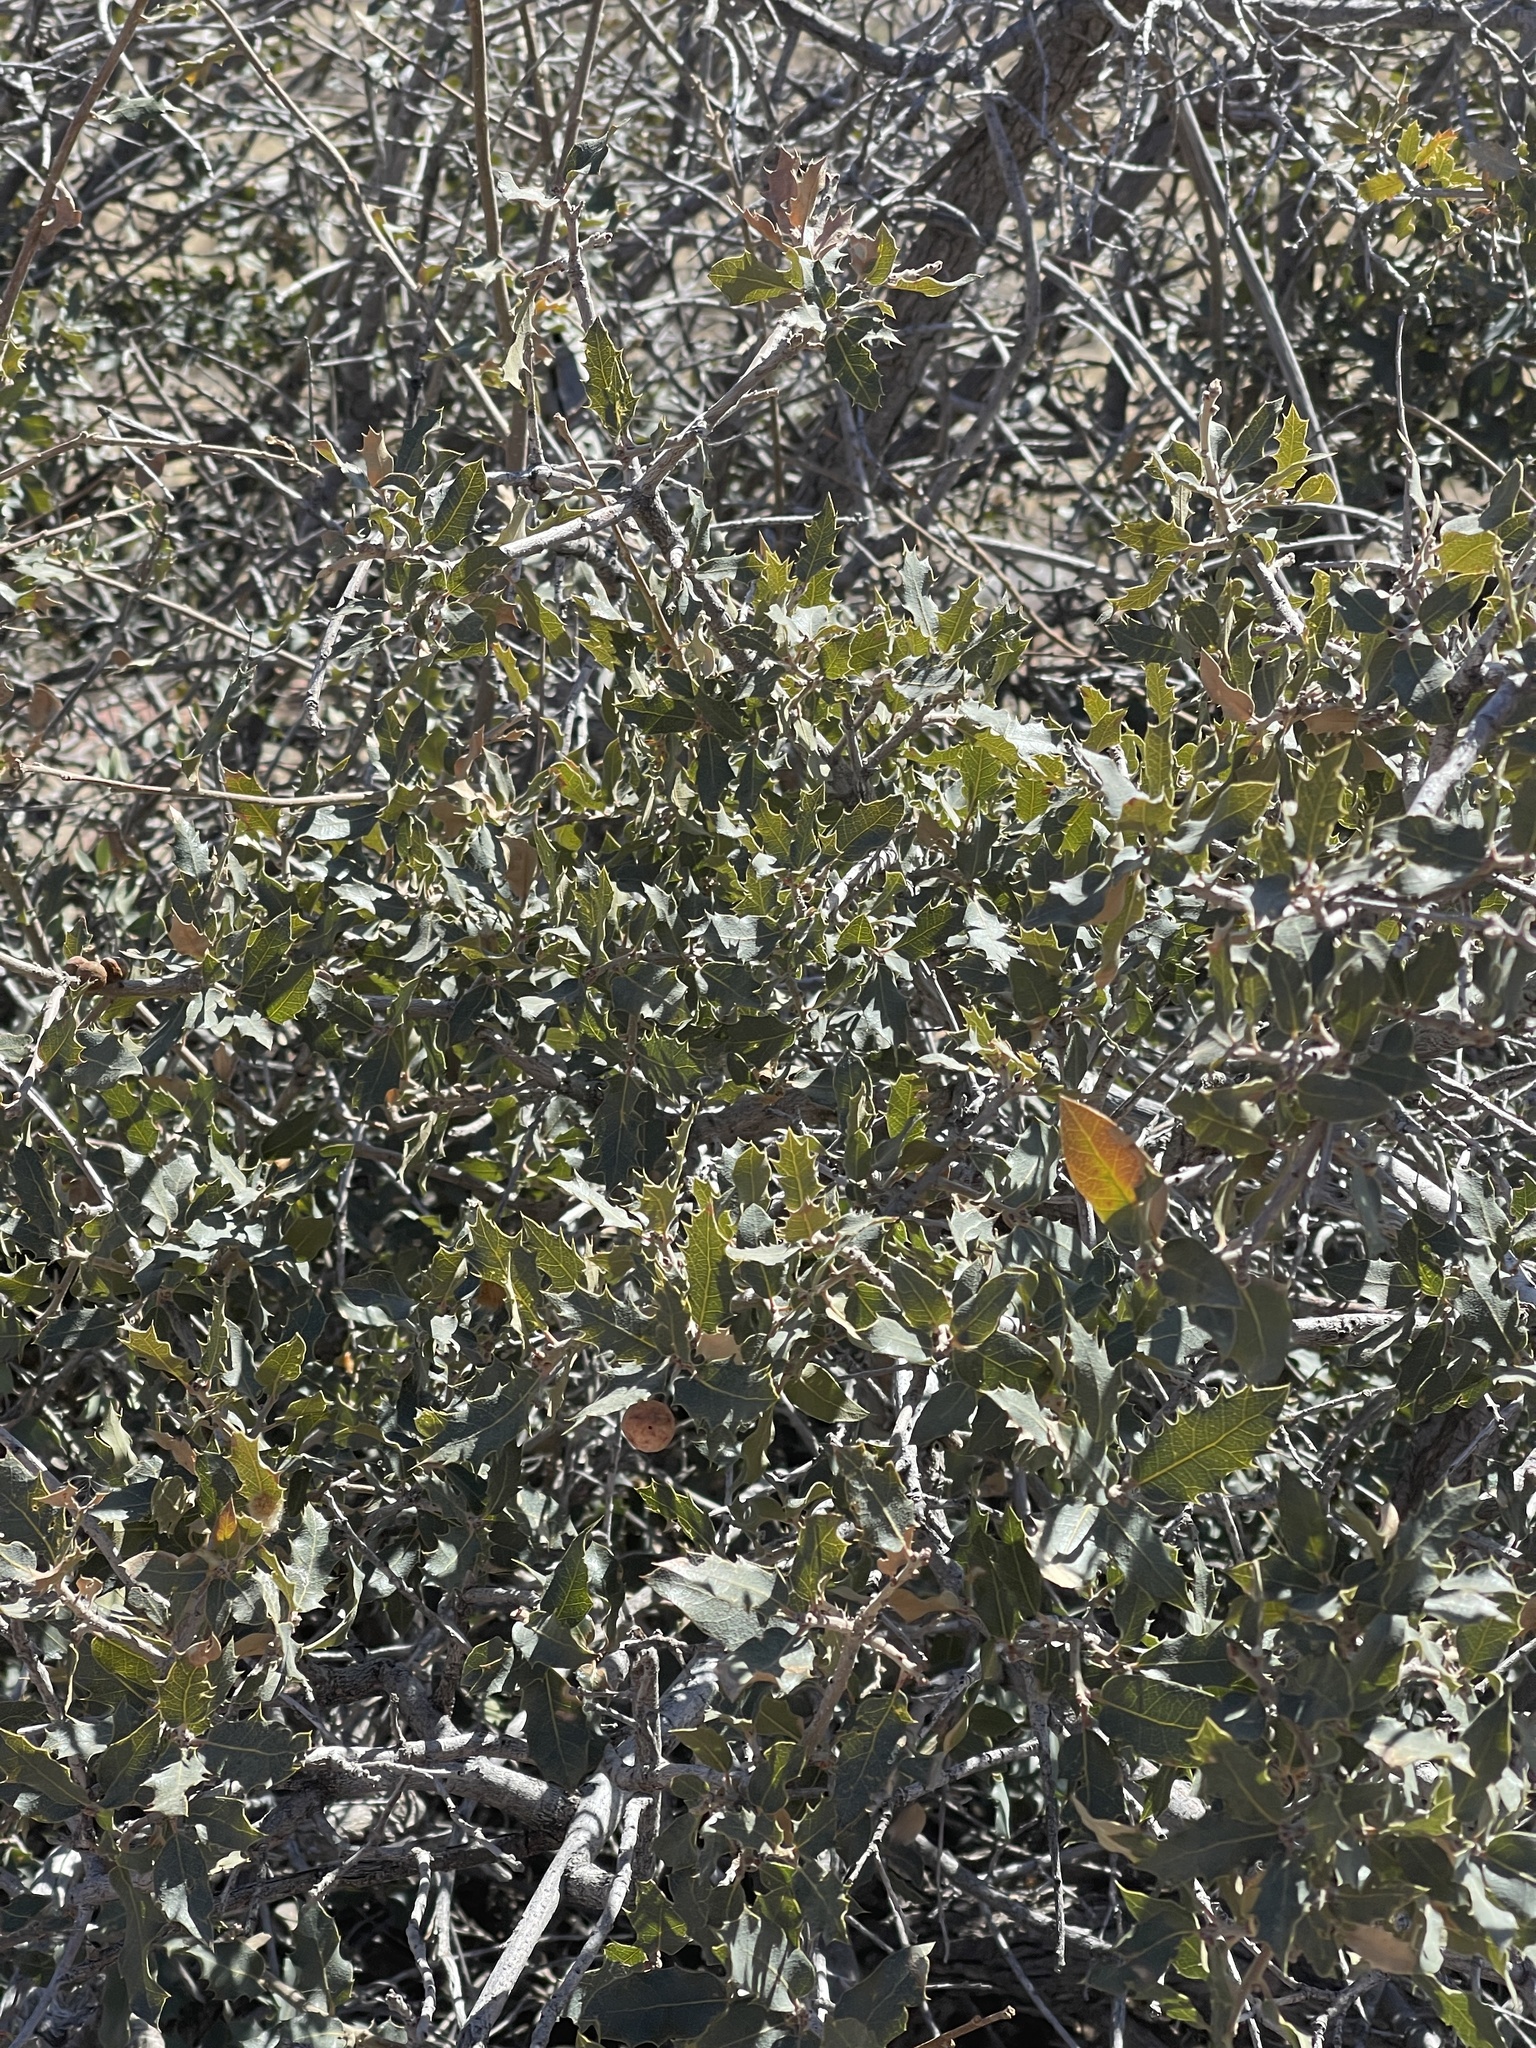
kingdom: Plantae
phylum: Tracheophyta
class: Magnoliopsida
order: Fagales
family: Fagaceae
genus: Quercus
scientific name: Quercus turbinella
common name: Sonoran scrub oak
